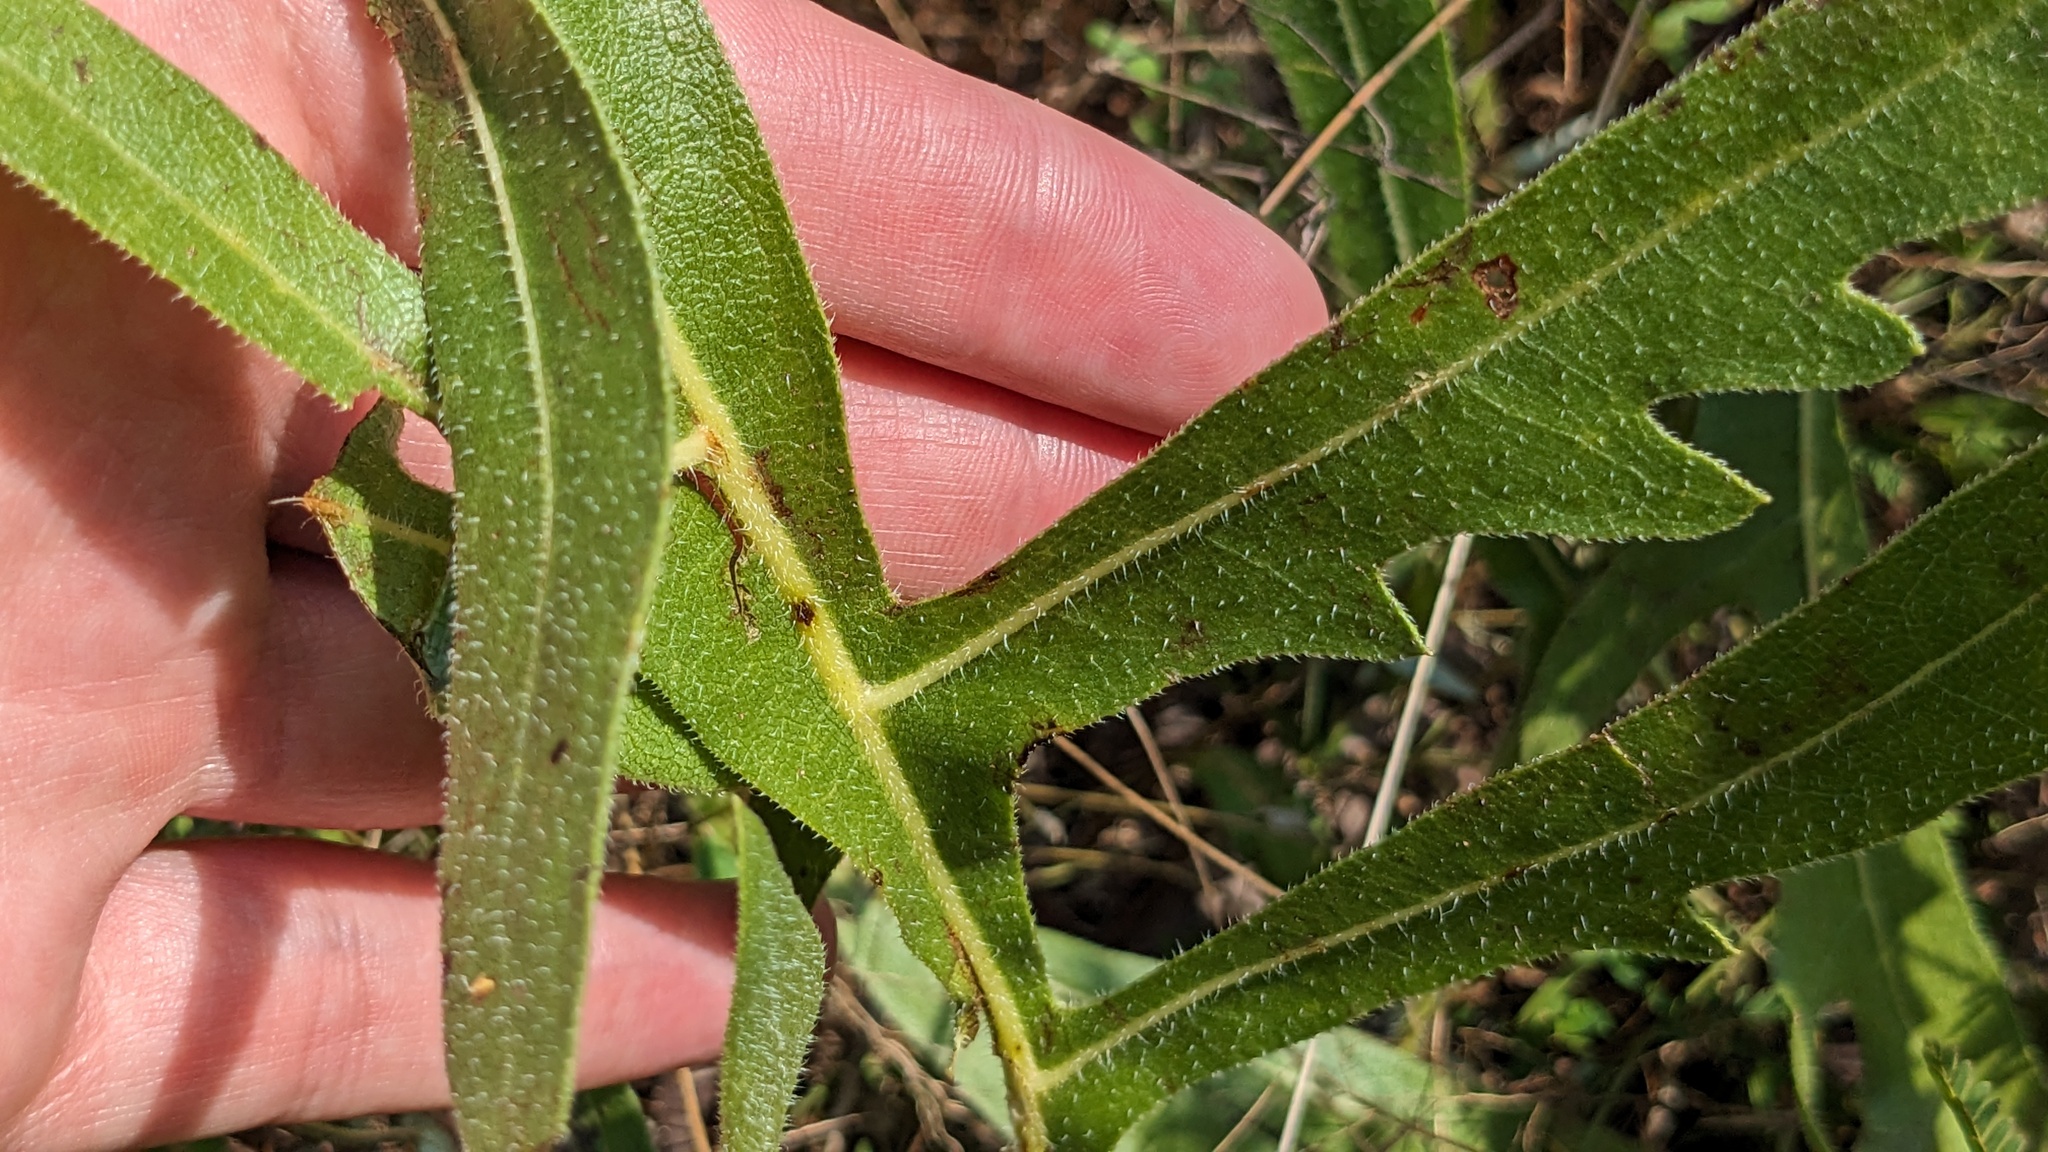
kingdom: Plantae
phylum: Tracheophyta
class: Magnoliopsida
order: Asterales
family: Asteraceae
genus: Silphium
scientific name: Silphium laciniatum
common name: Polarplant
